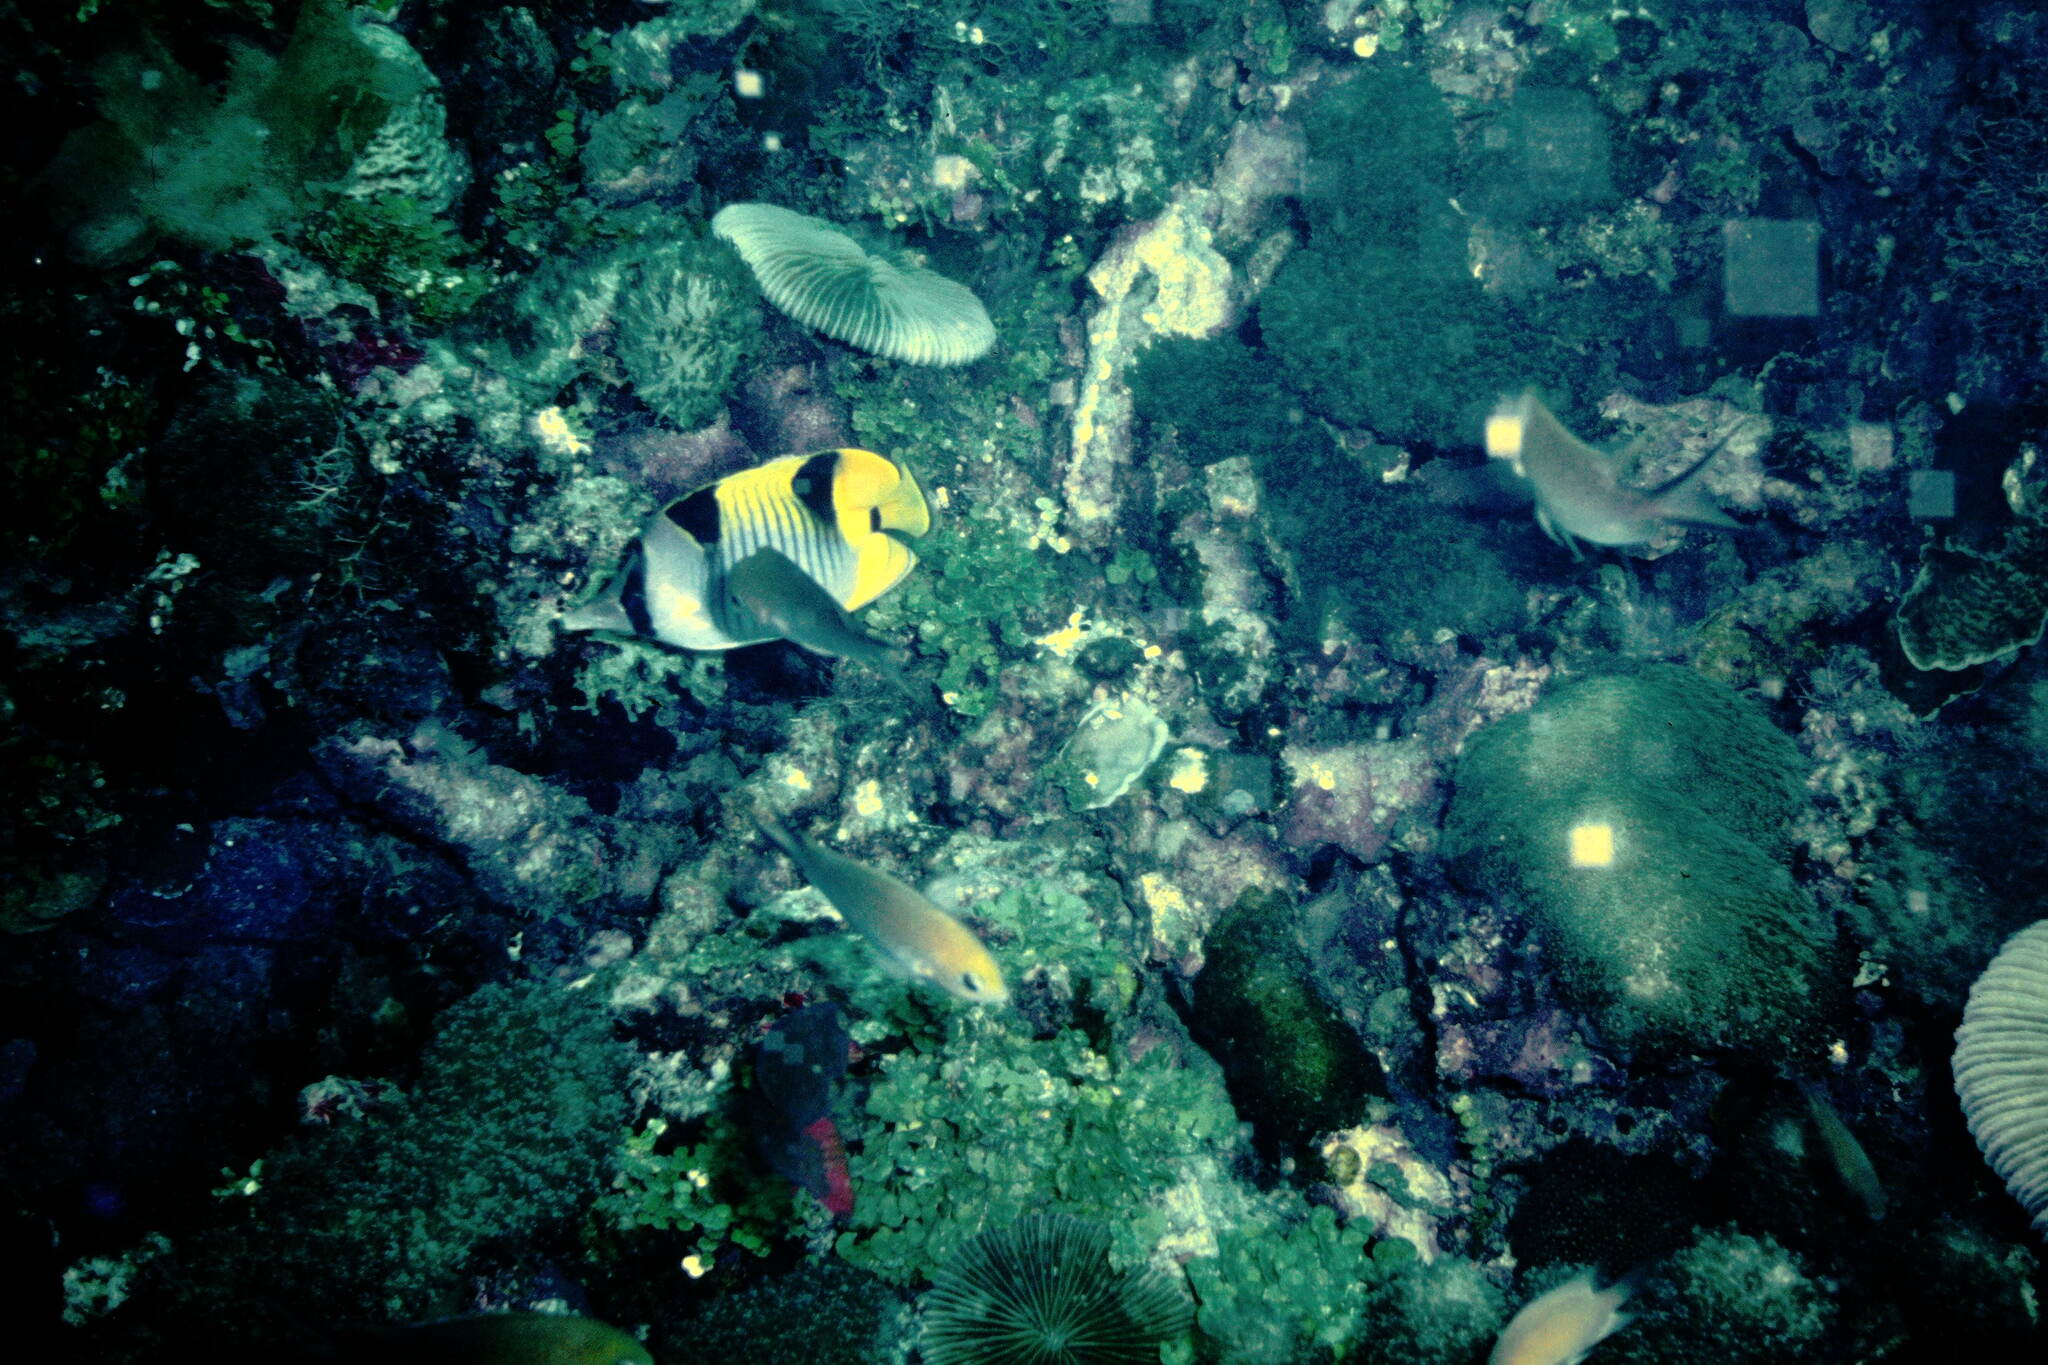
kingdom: Animalia
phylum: Chordata
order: Perciformes
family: Chaetodontidae
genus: Chaetodon
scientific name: Chaetodon falcula
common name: Blackwedged butterflyfish
